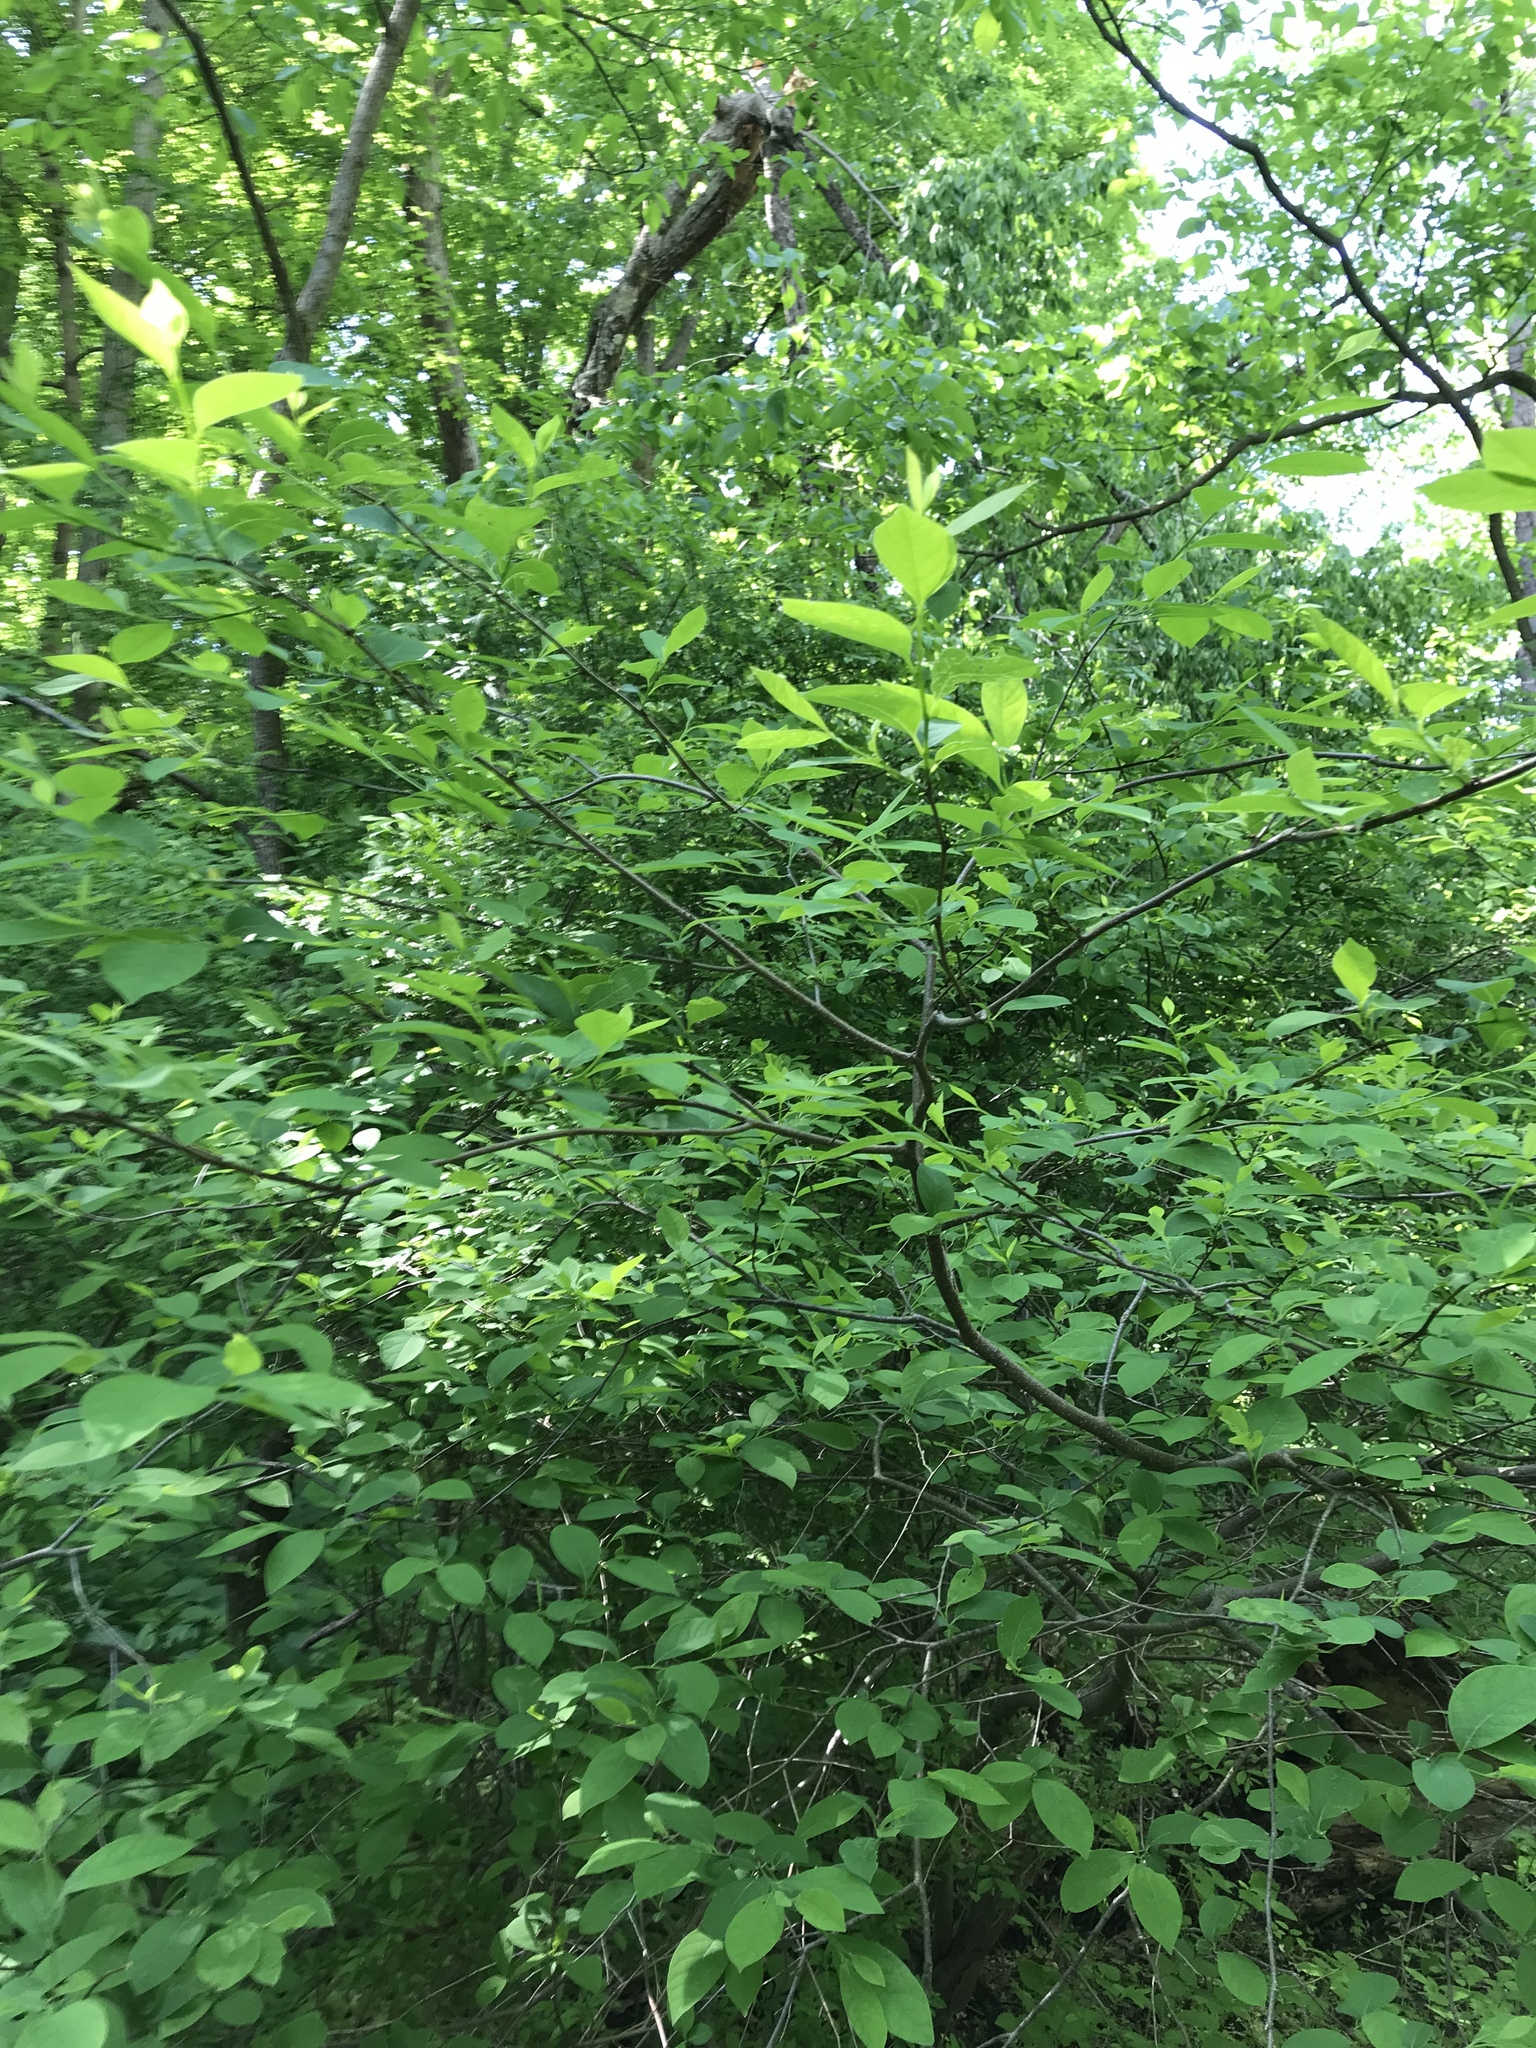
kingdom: Plantae
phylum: Tracheophyta
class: Magnoliopsida
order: Laurales
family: Lauraceae
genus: Lindera
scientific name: Lindera benzoin
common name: Spicebush
